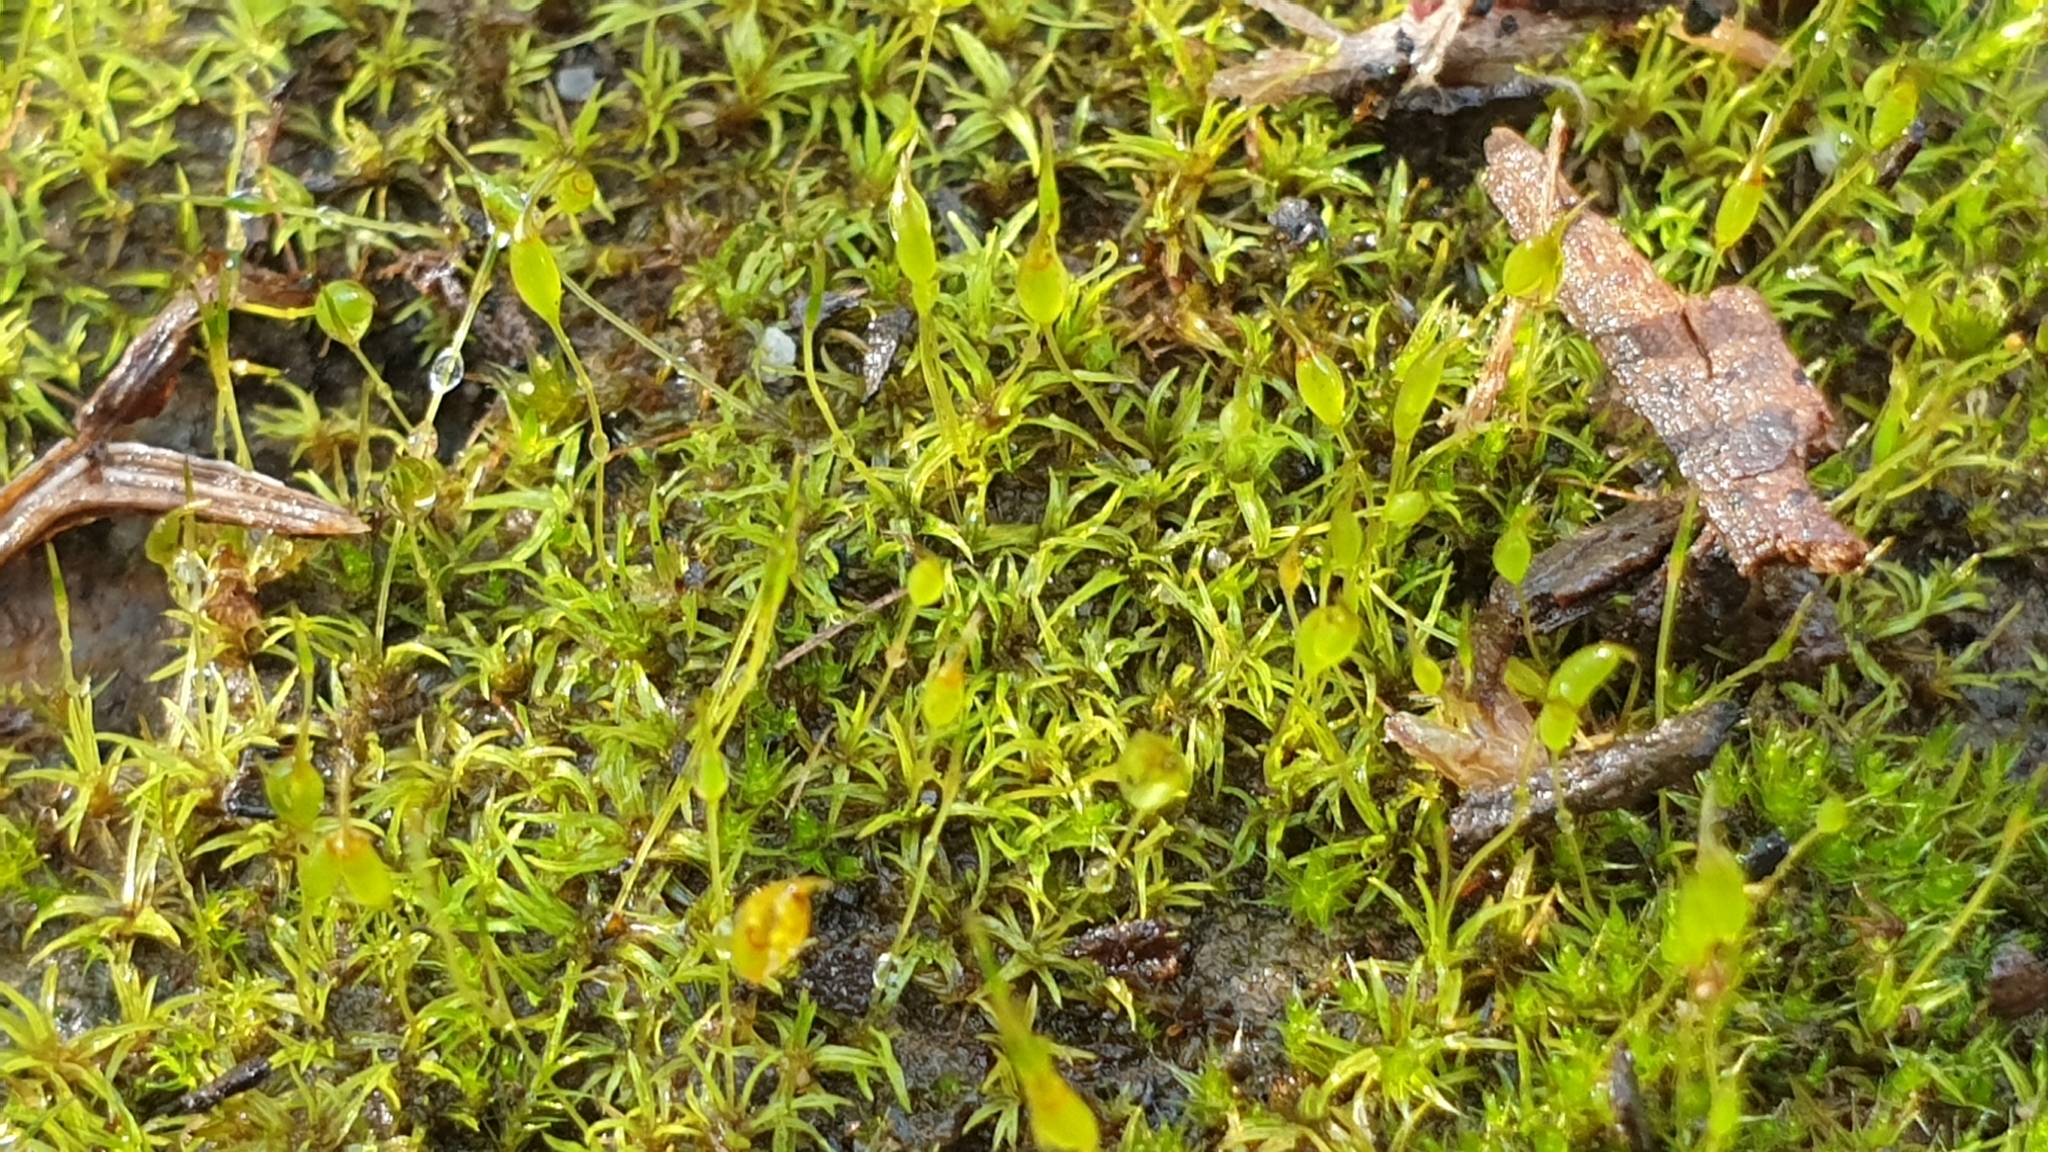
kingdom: Plantae
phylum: Bryophyta
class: Bryopsida
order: Pottiales
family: Pottiaceae
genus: Weissia
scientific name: Weissia controversa
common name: Green-tufted stubble moss
